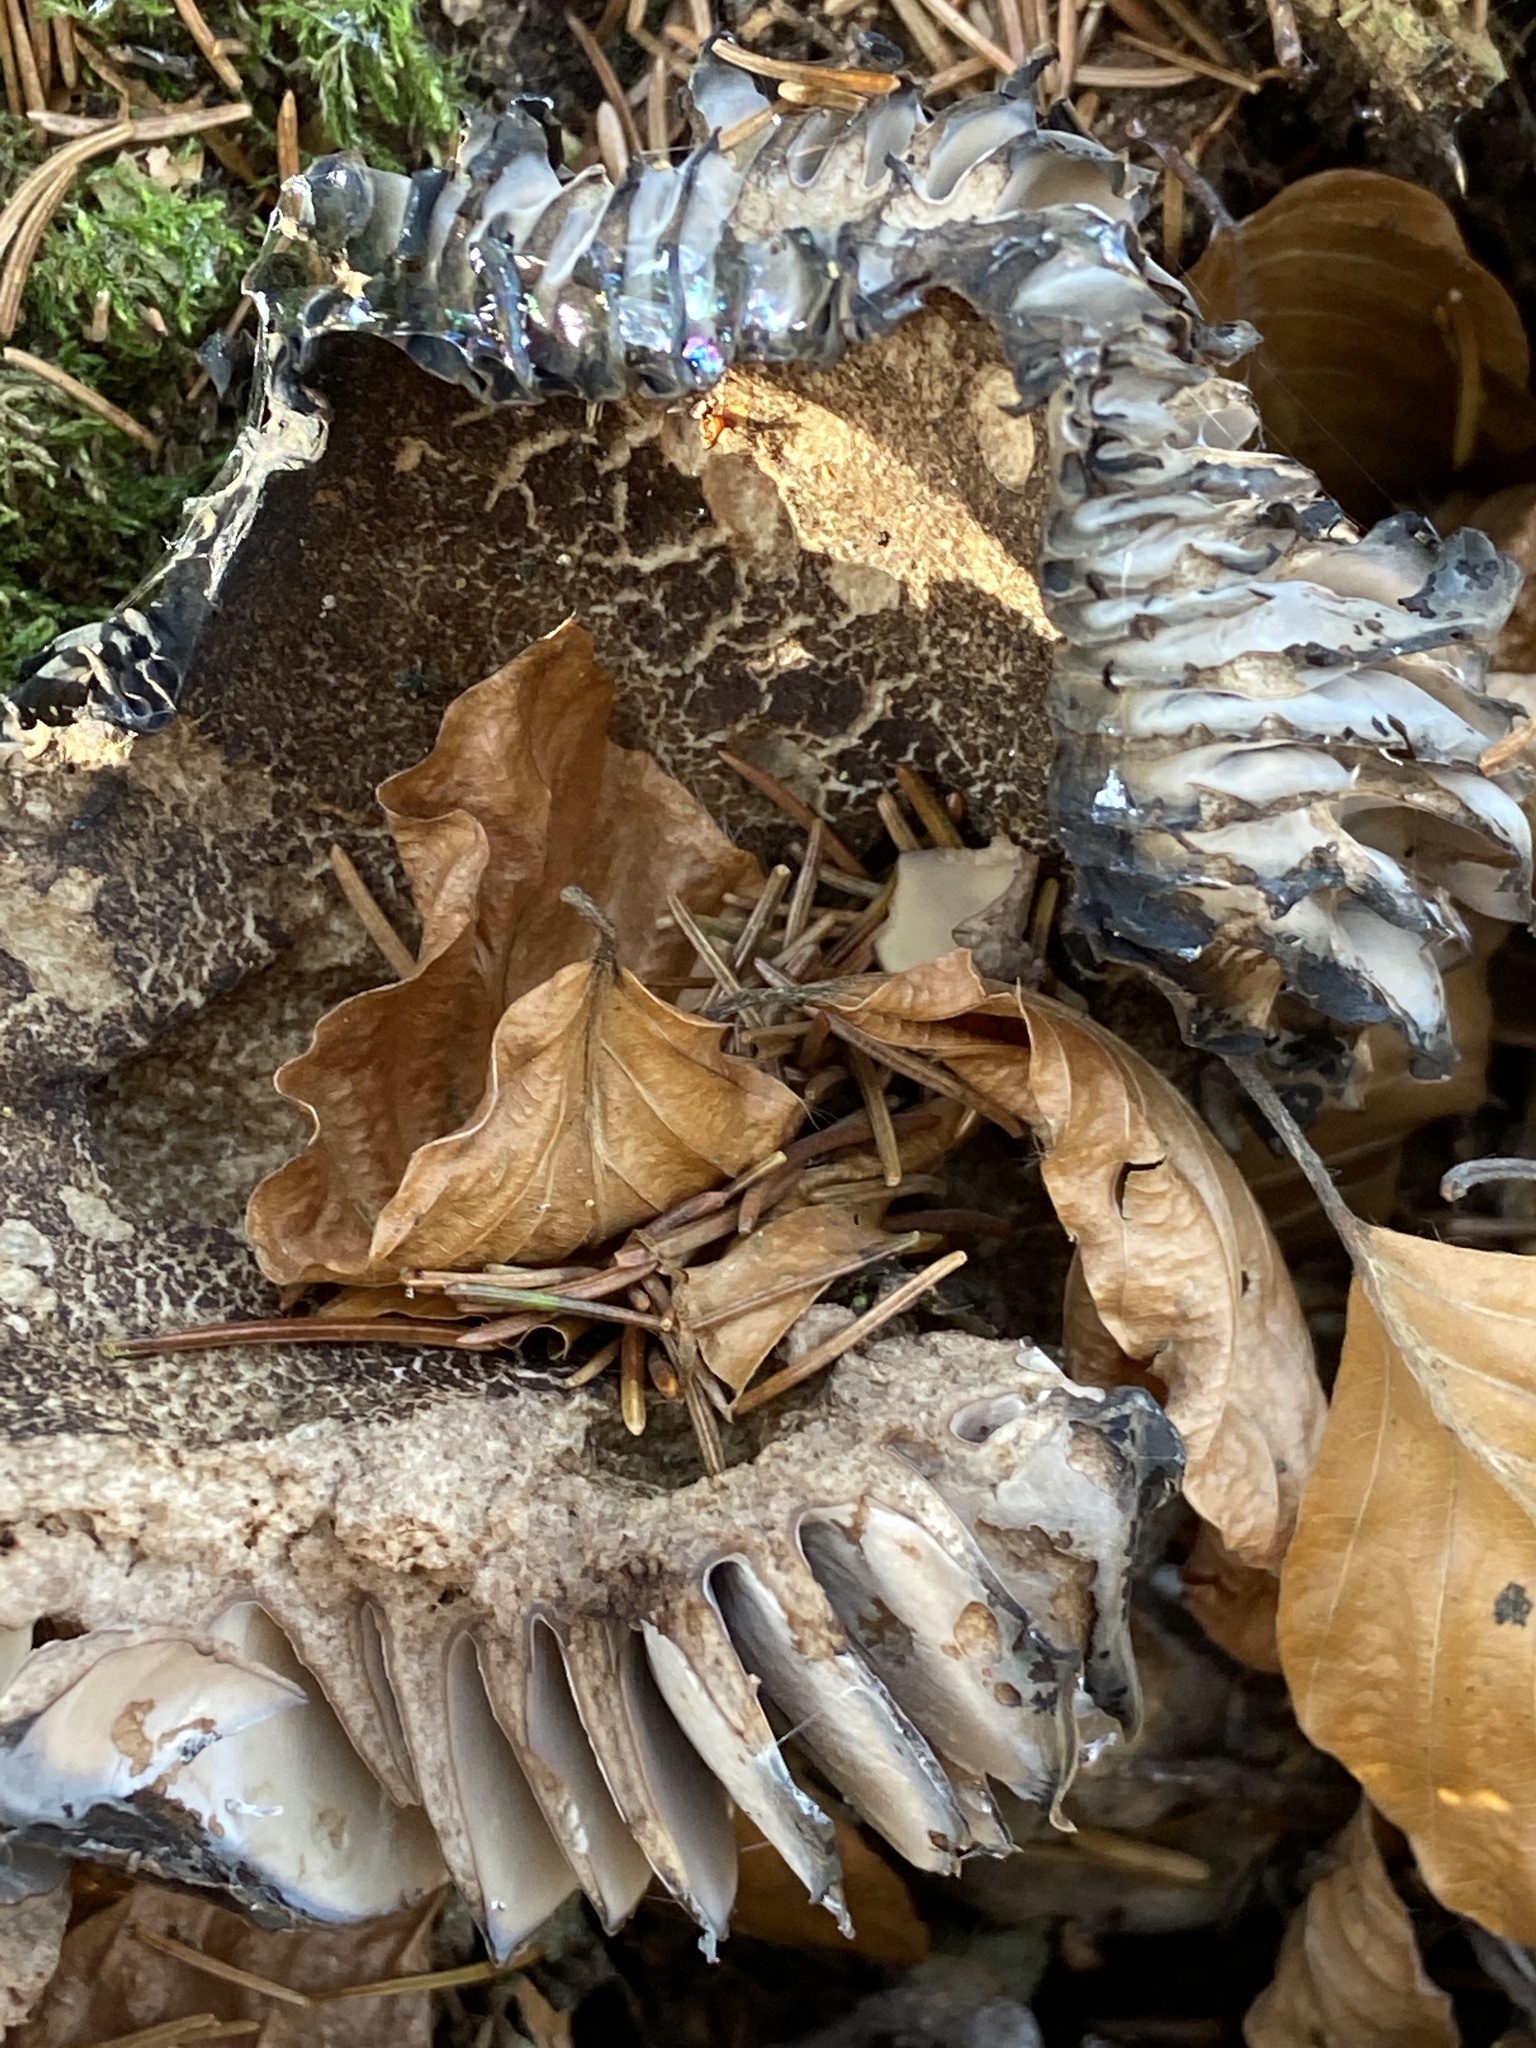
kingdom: Fungi
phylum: Basidiomycota
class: Agaricomycetes
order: Russulales
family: Russulaceae
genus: Russula
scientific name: Russula adusta
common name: Winecork brittlegill
